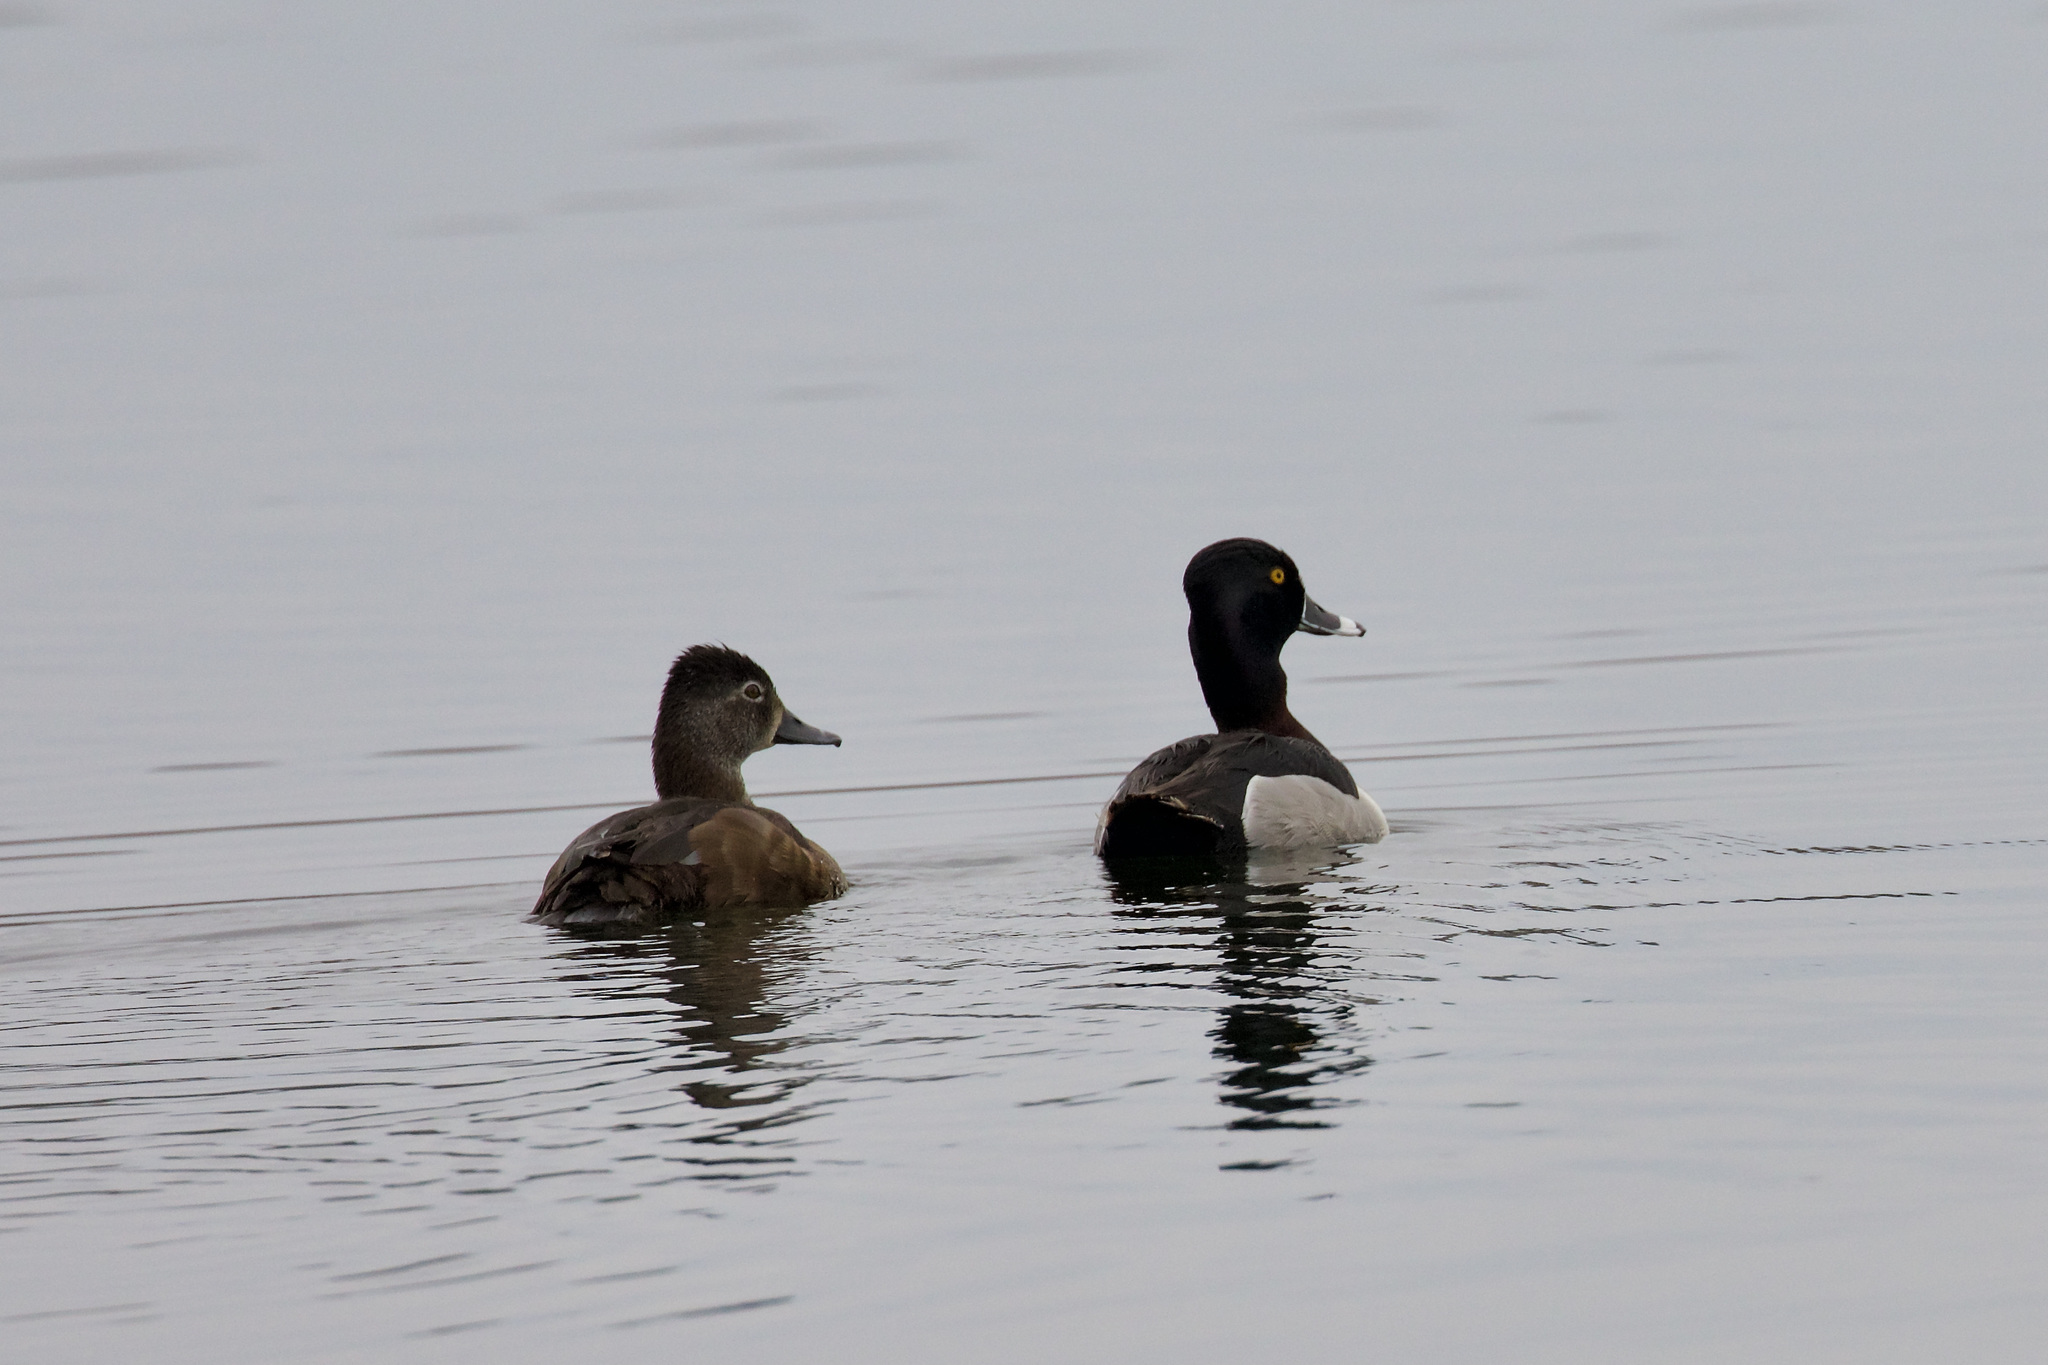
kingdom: Animalia
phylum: Chordata
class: Aves
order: Anseriformes
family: Anatidae
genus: Aythya
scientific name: Aythya collaris
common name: Ring-necked duck
